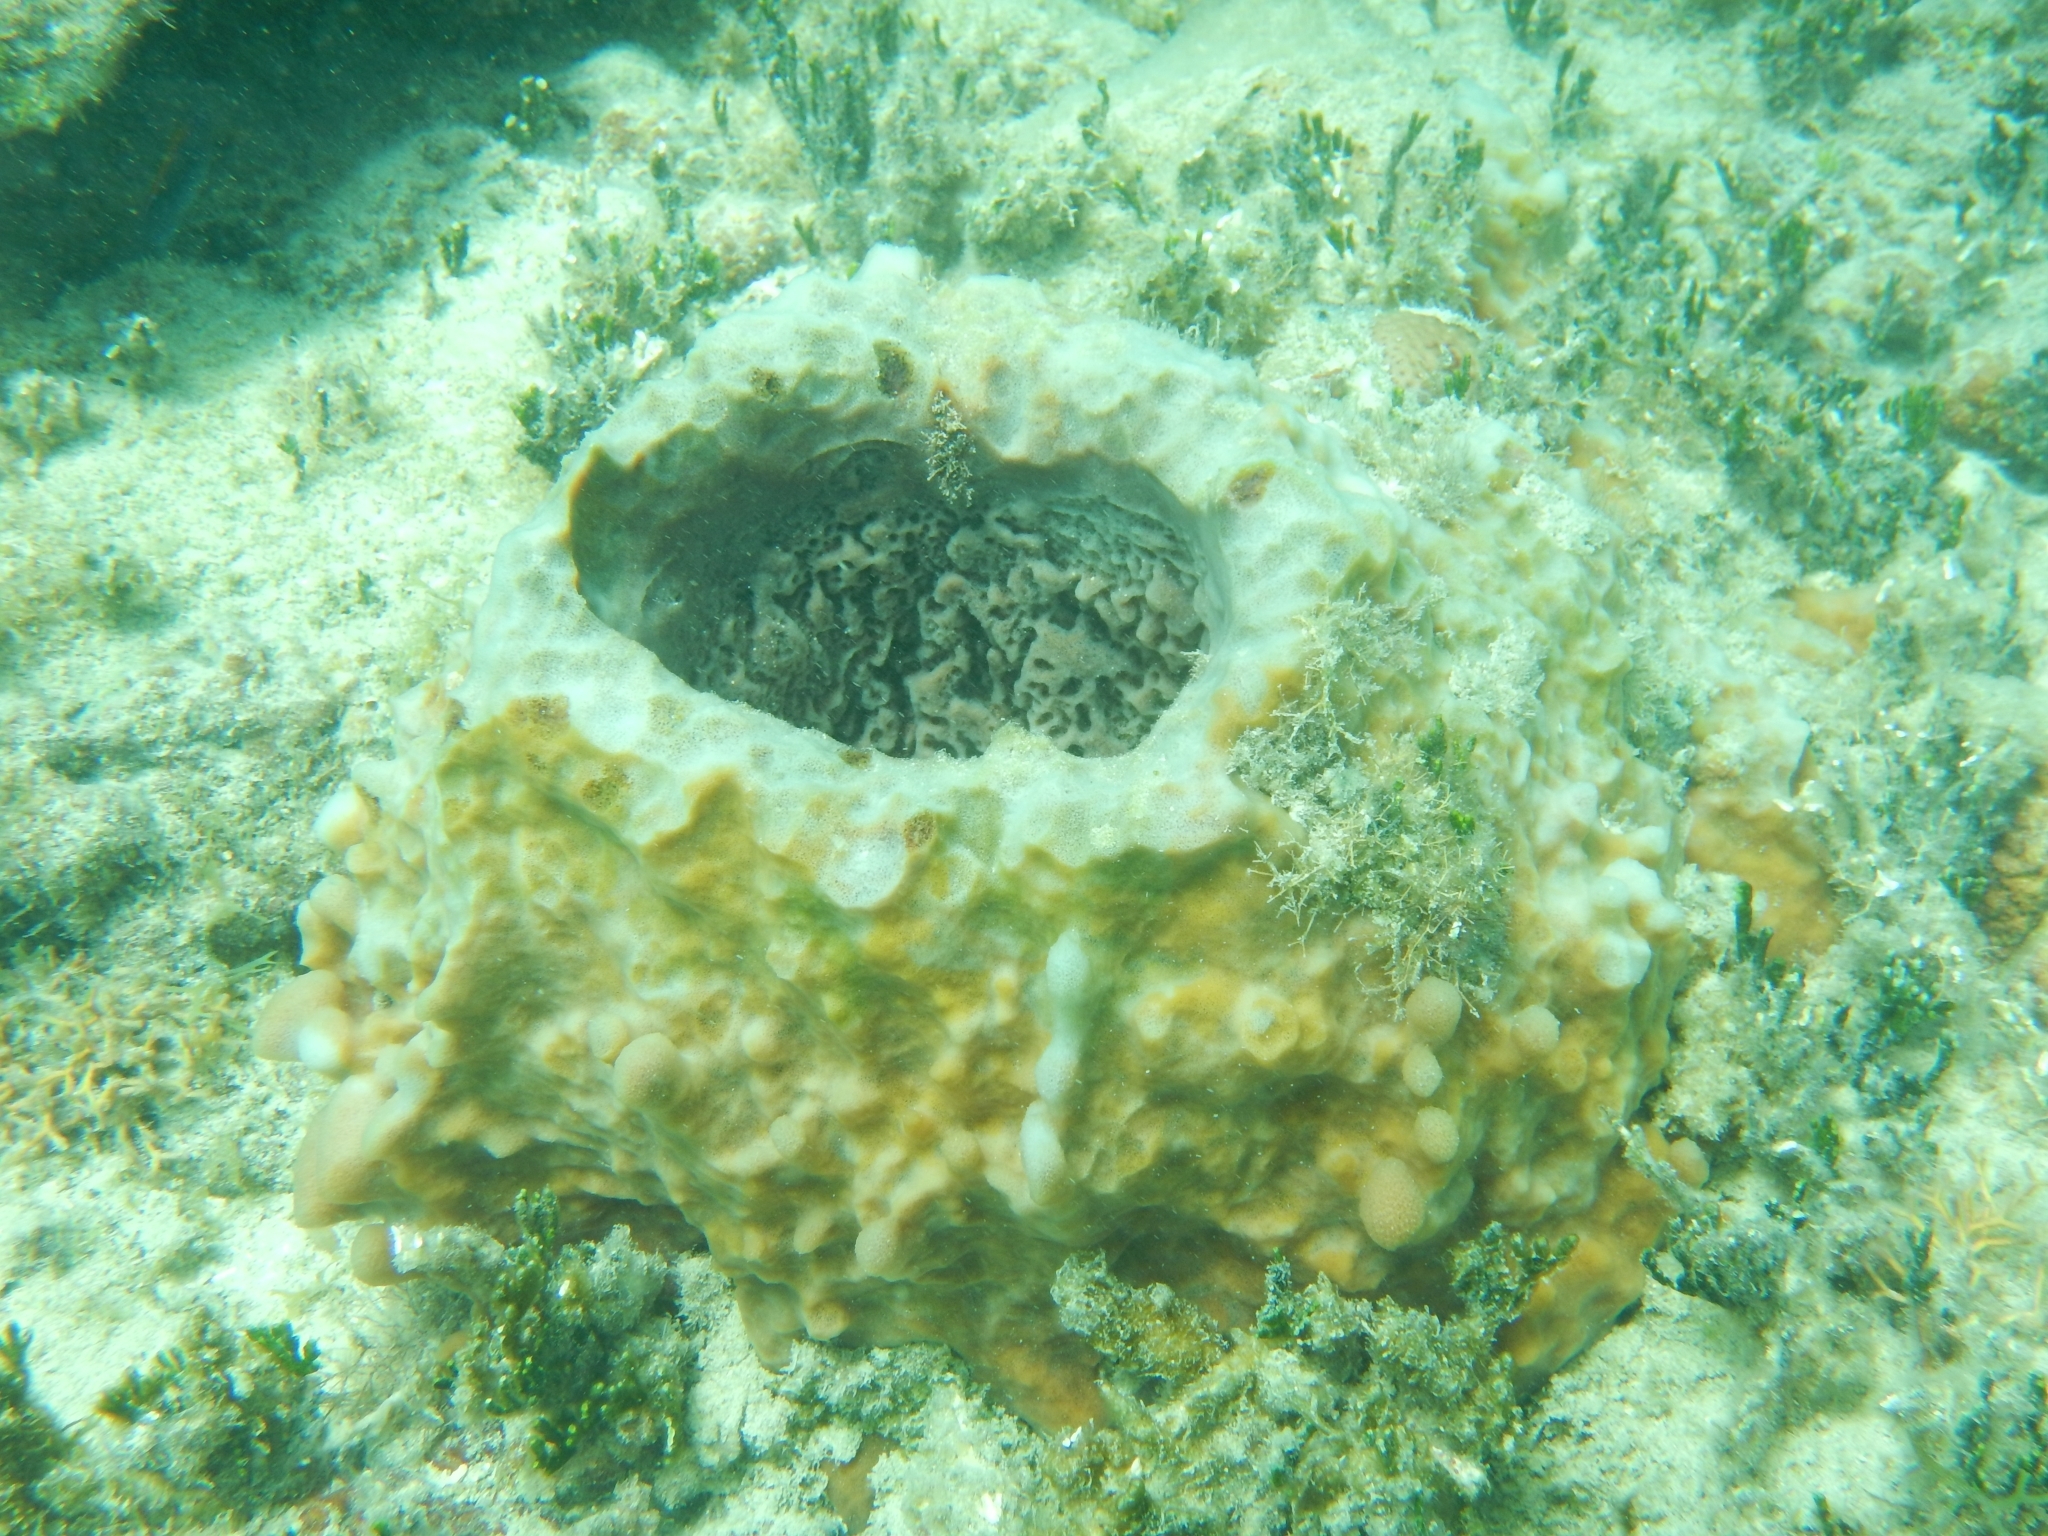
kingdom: Animalia
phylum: Porifera
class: Demospongiae
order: Haplosclerida
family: Petrosiidae
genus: Xestospongia
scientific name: Xestospongia muta
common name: Giant barrel sponge
